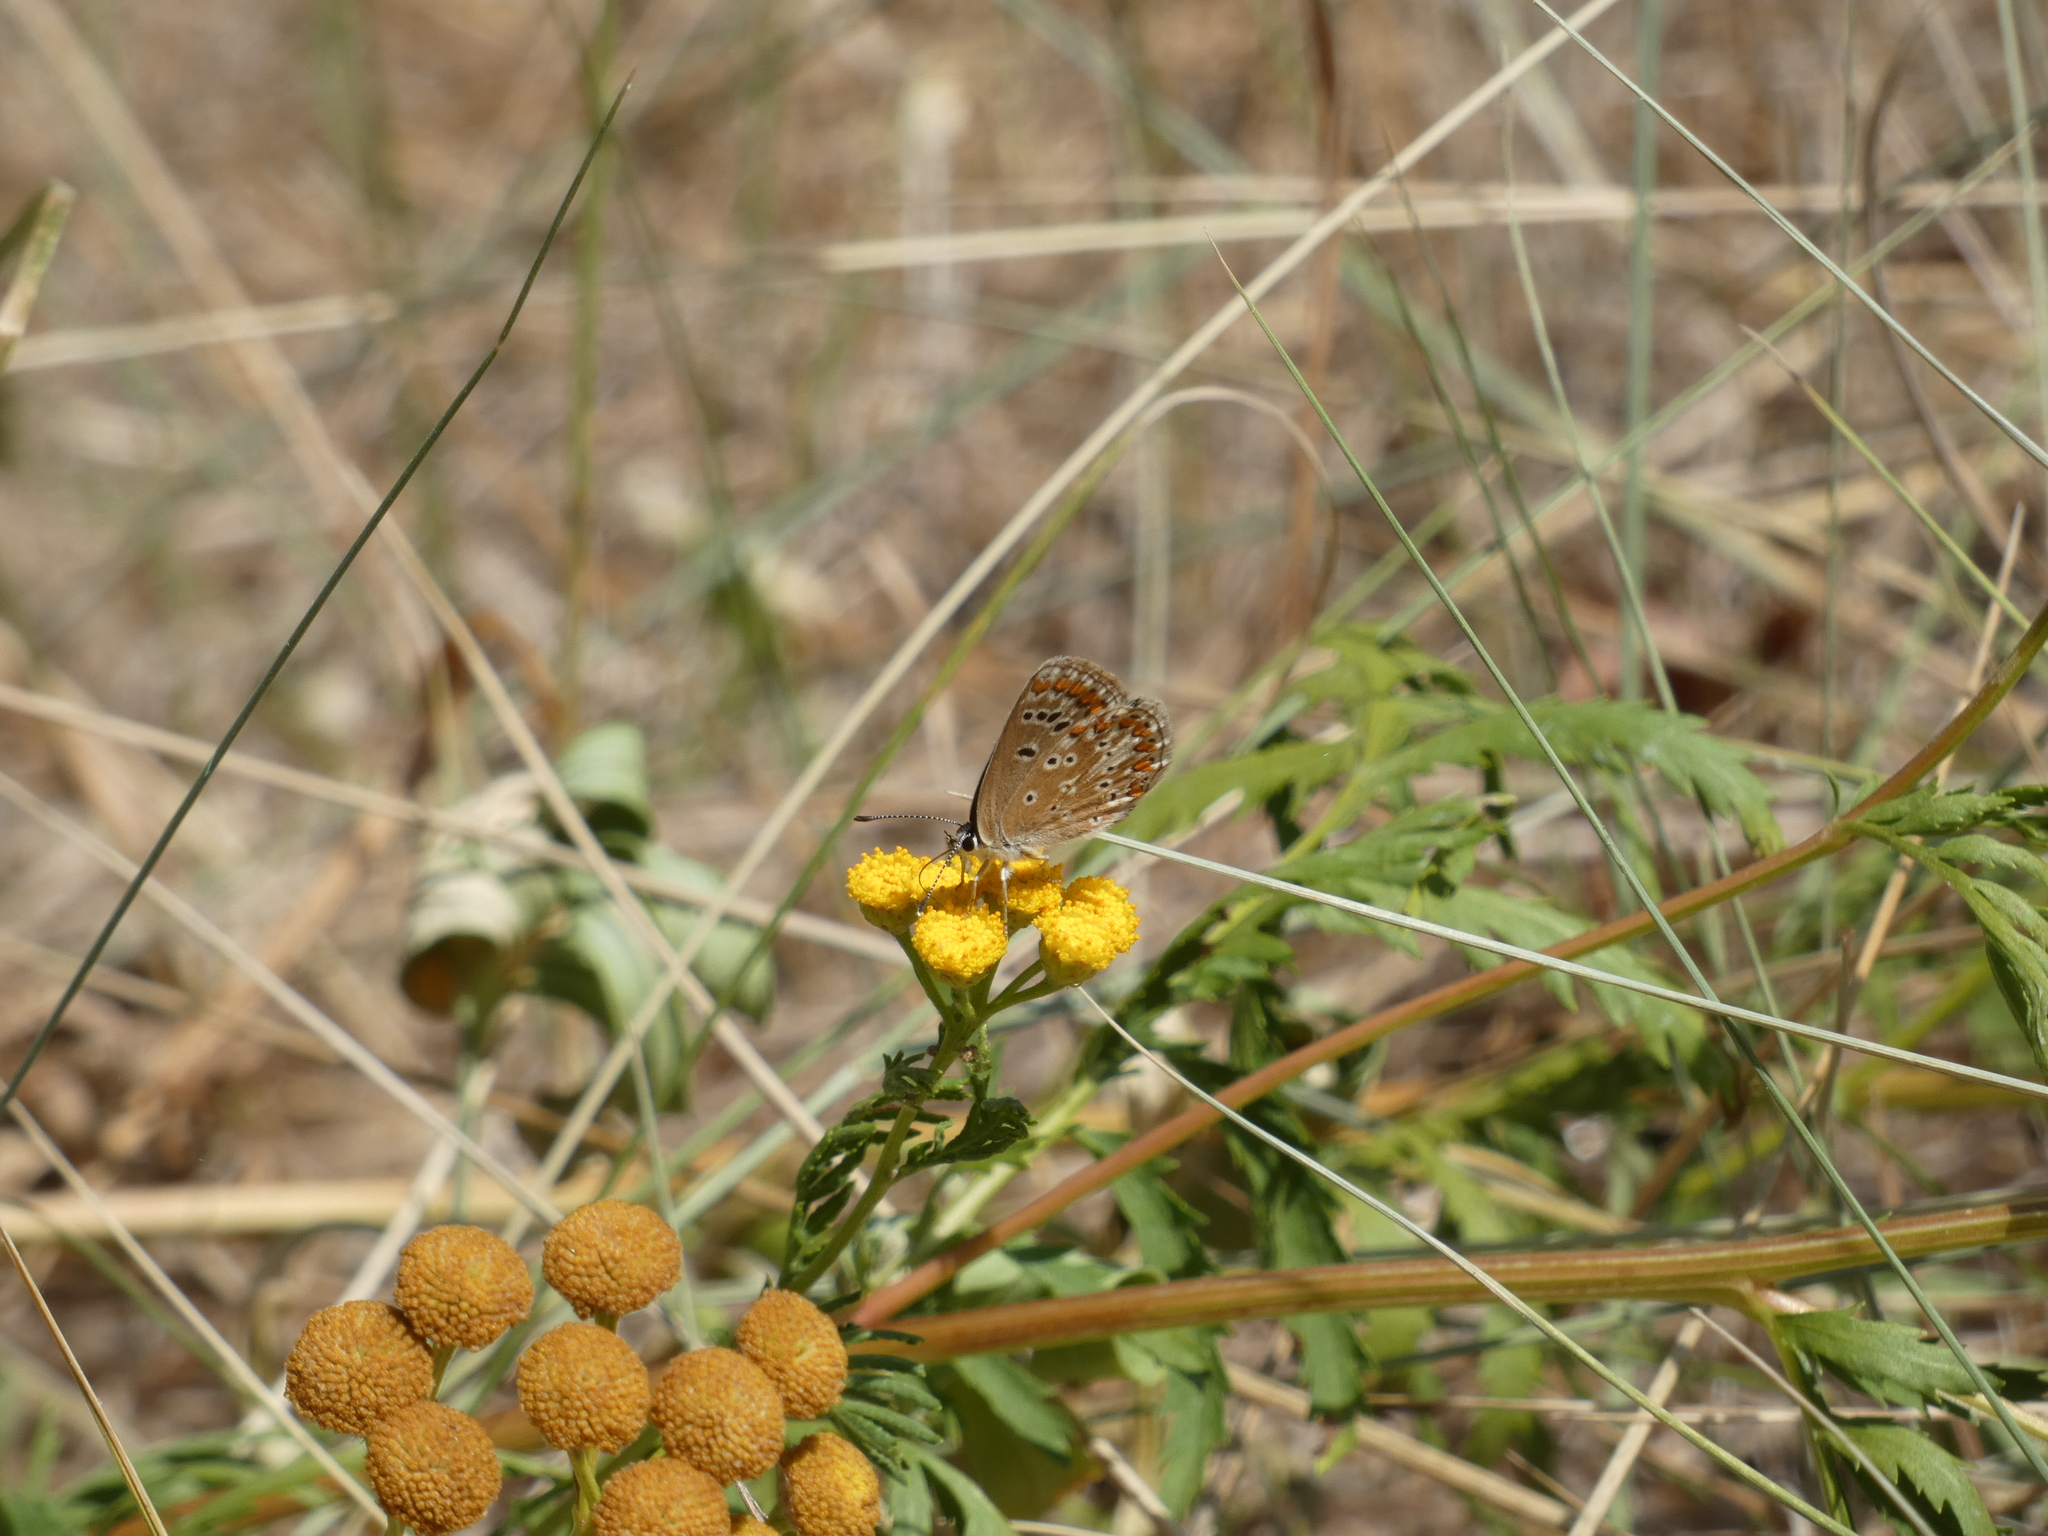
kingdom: Animalia
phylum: Arthropoda
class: Insecta
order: Lepidoptera
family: Lycaenidae
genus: Aricia
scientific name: Aricia agestis
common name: Brown argus
